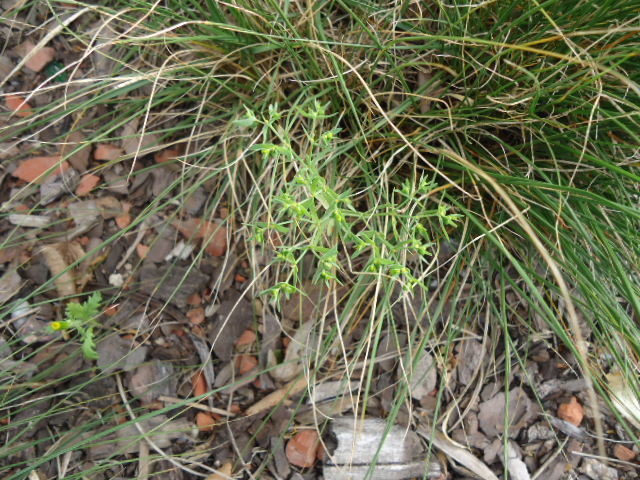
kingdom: Plantae
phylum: Tracheophyta
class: Magnoliopsida
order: Malpighiales
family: Euphorbiaceae
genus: Euphorbia
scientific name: Euphorbia exigua
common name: Dwarf spurge
